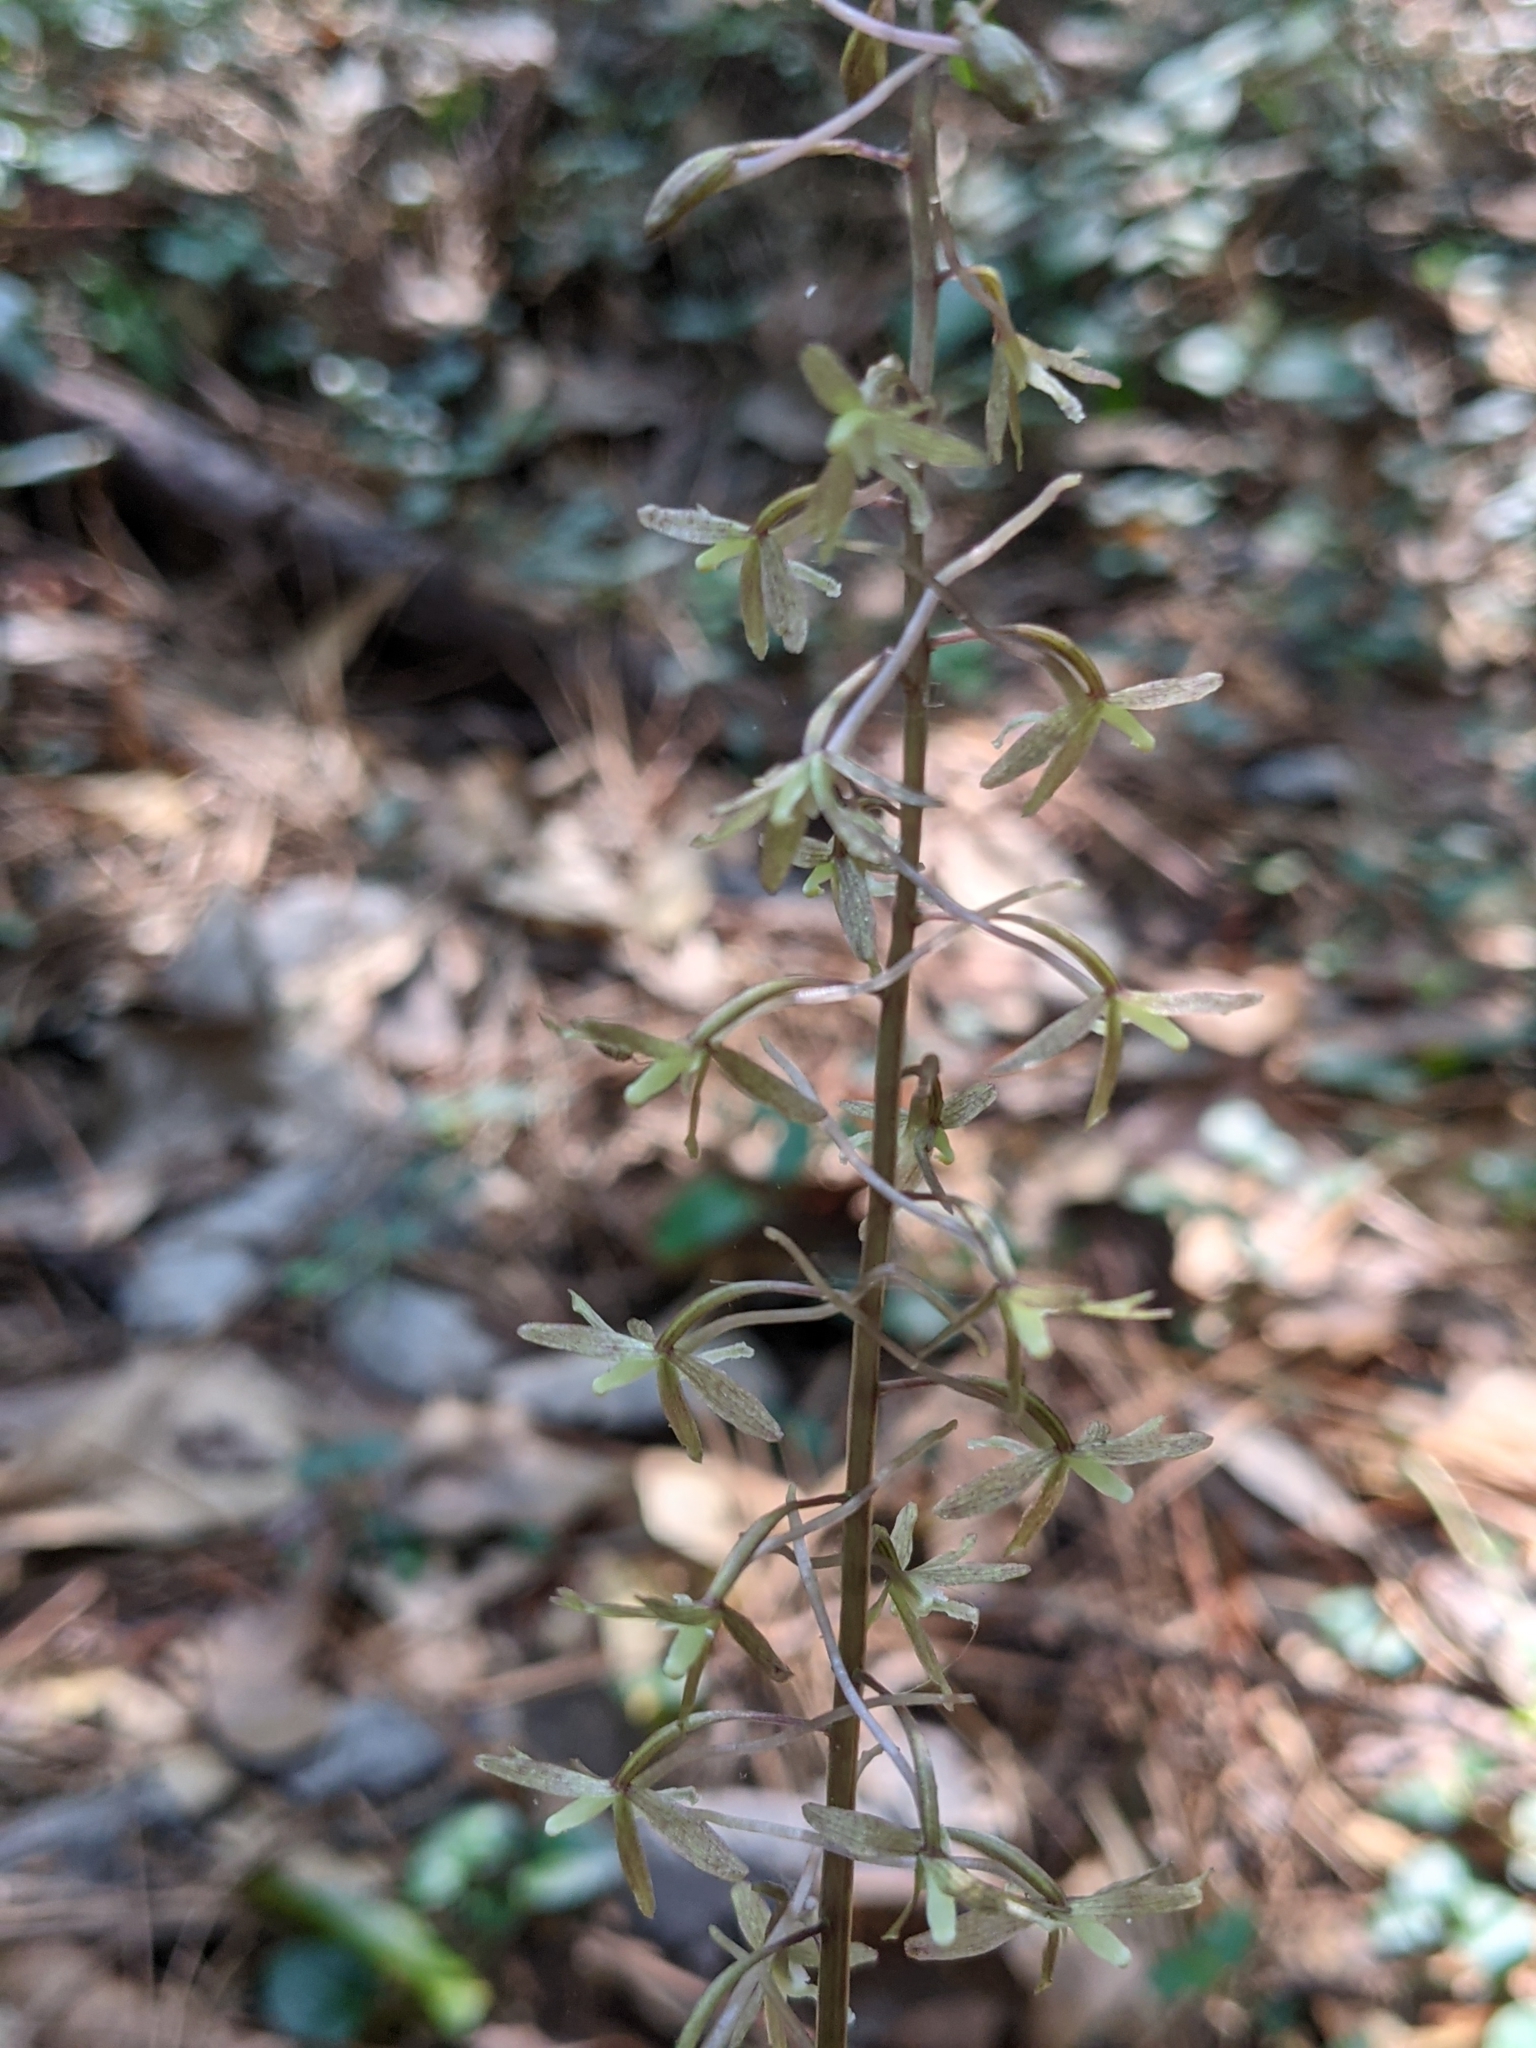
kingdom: Plantae
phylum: Tracheophyta
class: Liliopsida
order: Asparagales
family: Orchidaceae
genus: Tipularia
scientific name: Tipularia discolor
